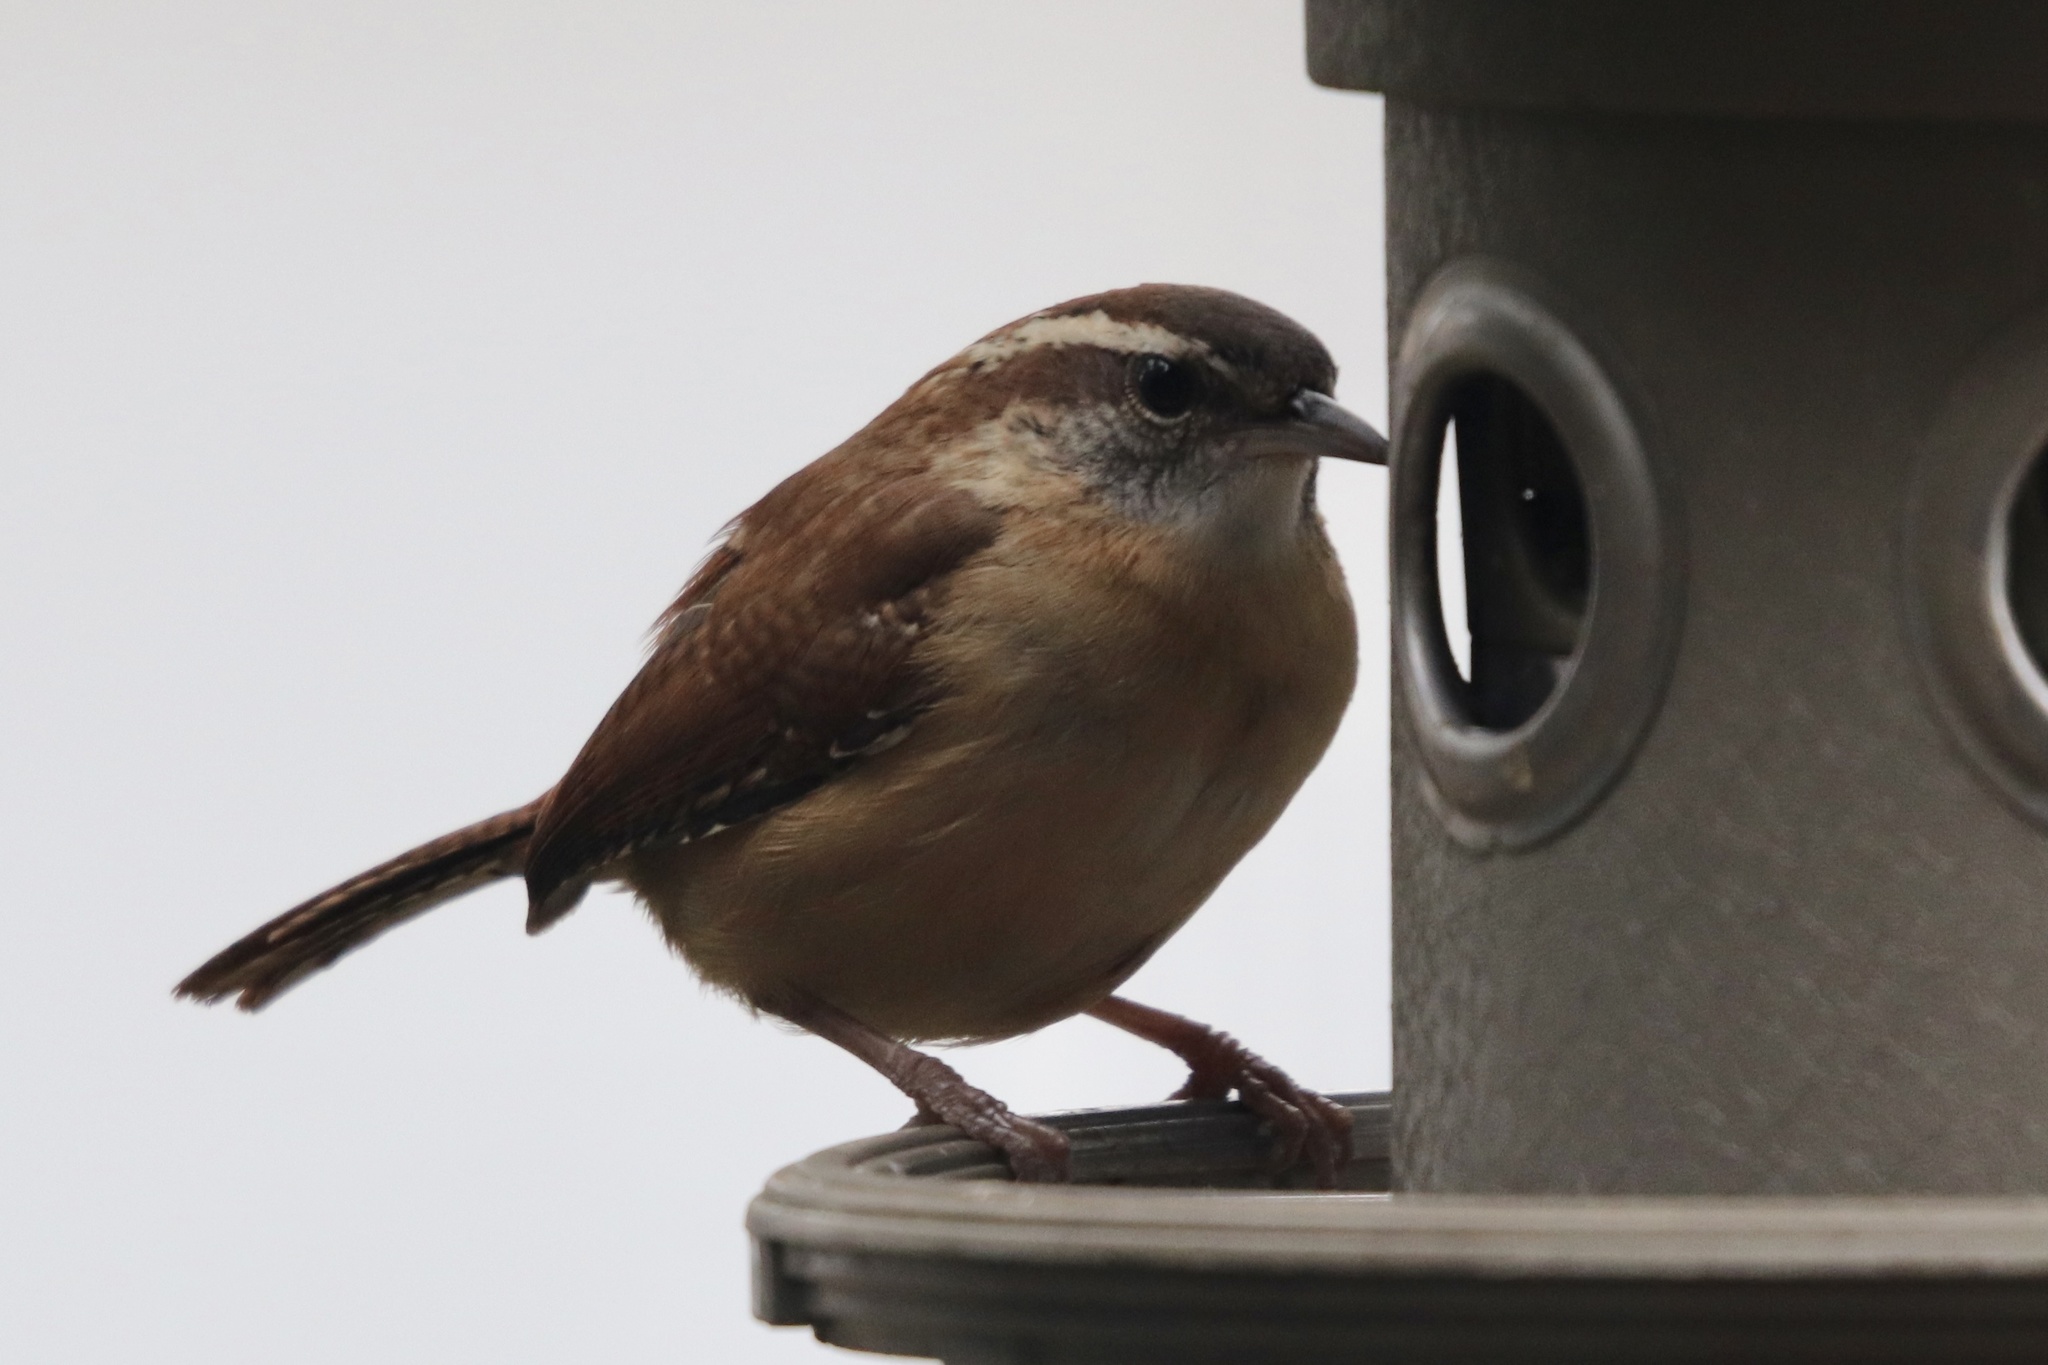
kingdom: Animalia
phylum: Chordata
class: Aves
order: Passeriformes
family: Troglodytidae
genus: Thryothorus
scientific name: Thryothorus ludovicianus
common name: Carolina wren
